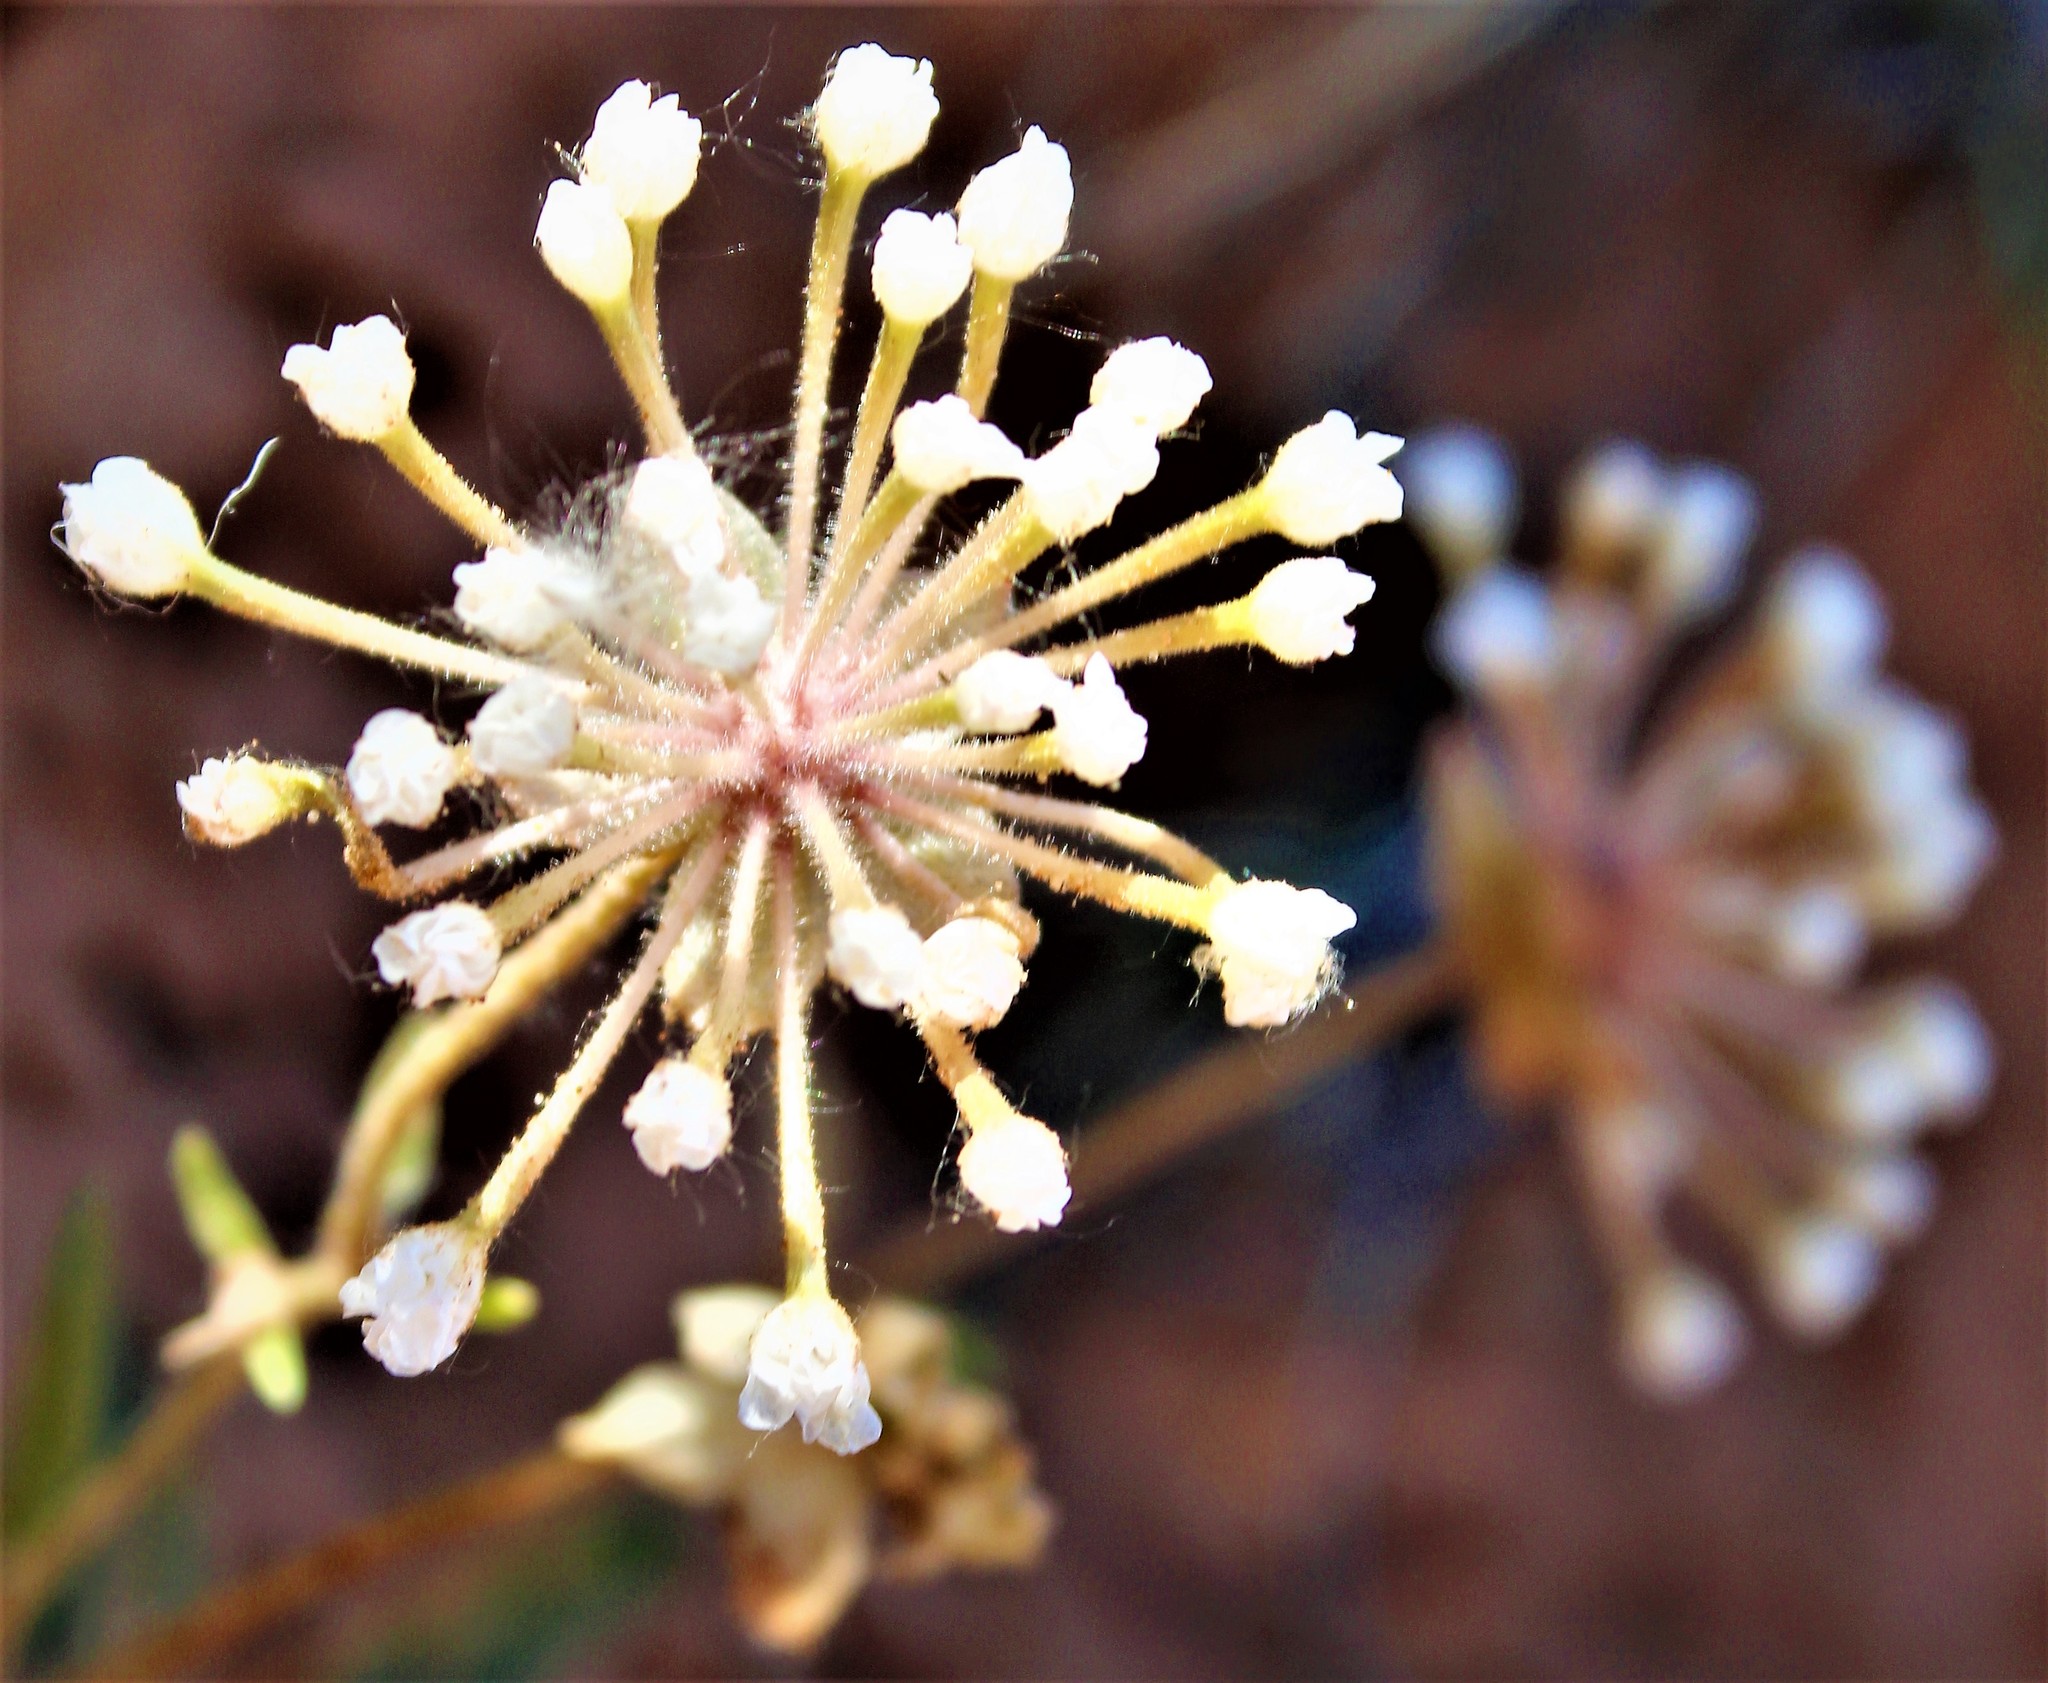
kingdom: Plantae
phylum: Tracheophyta
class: Magnoliopsida
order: Caryophyllales
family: Nyctaginaceae
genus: Abronia
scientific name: Abronia elliptica
